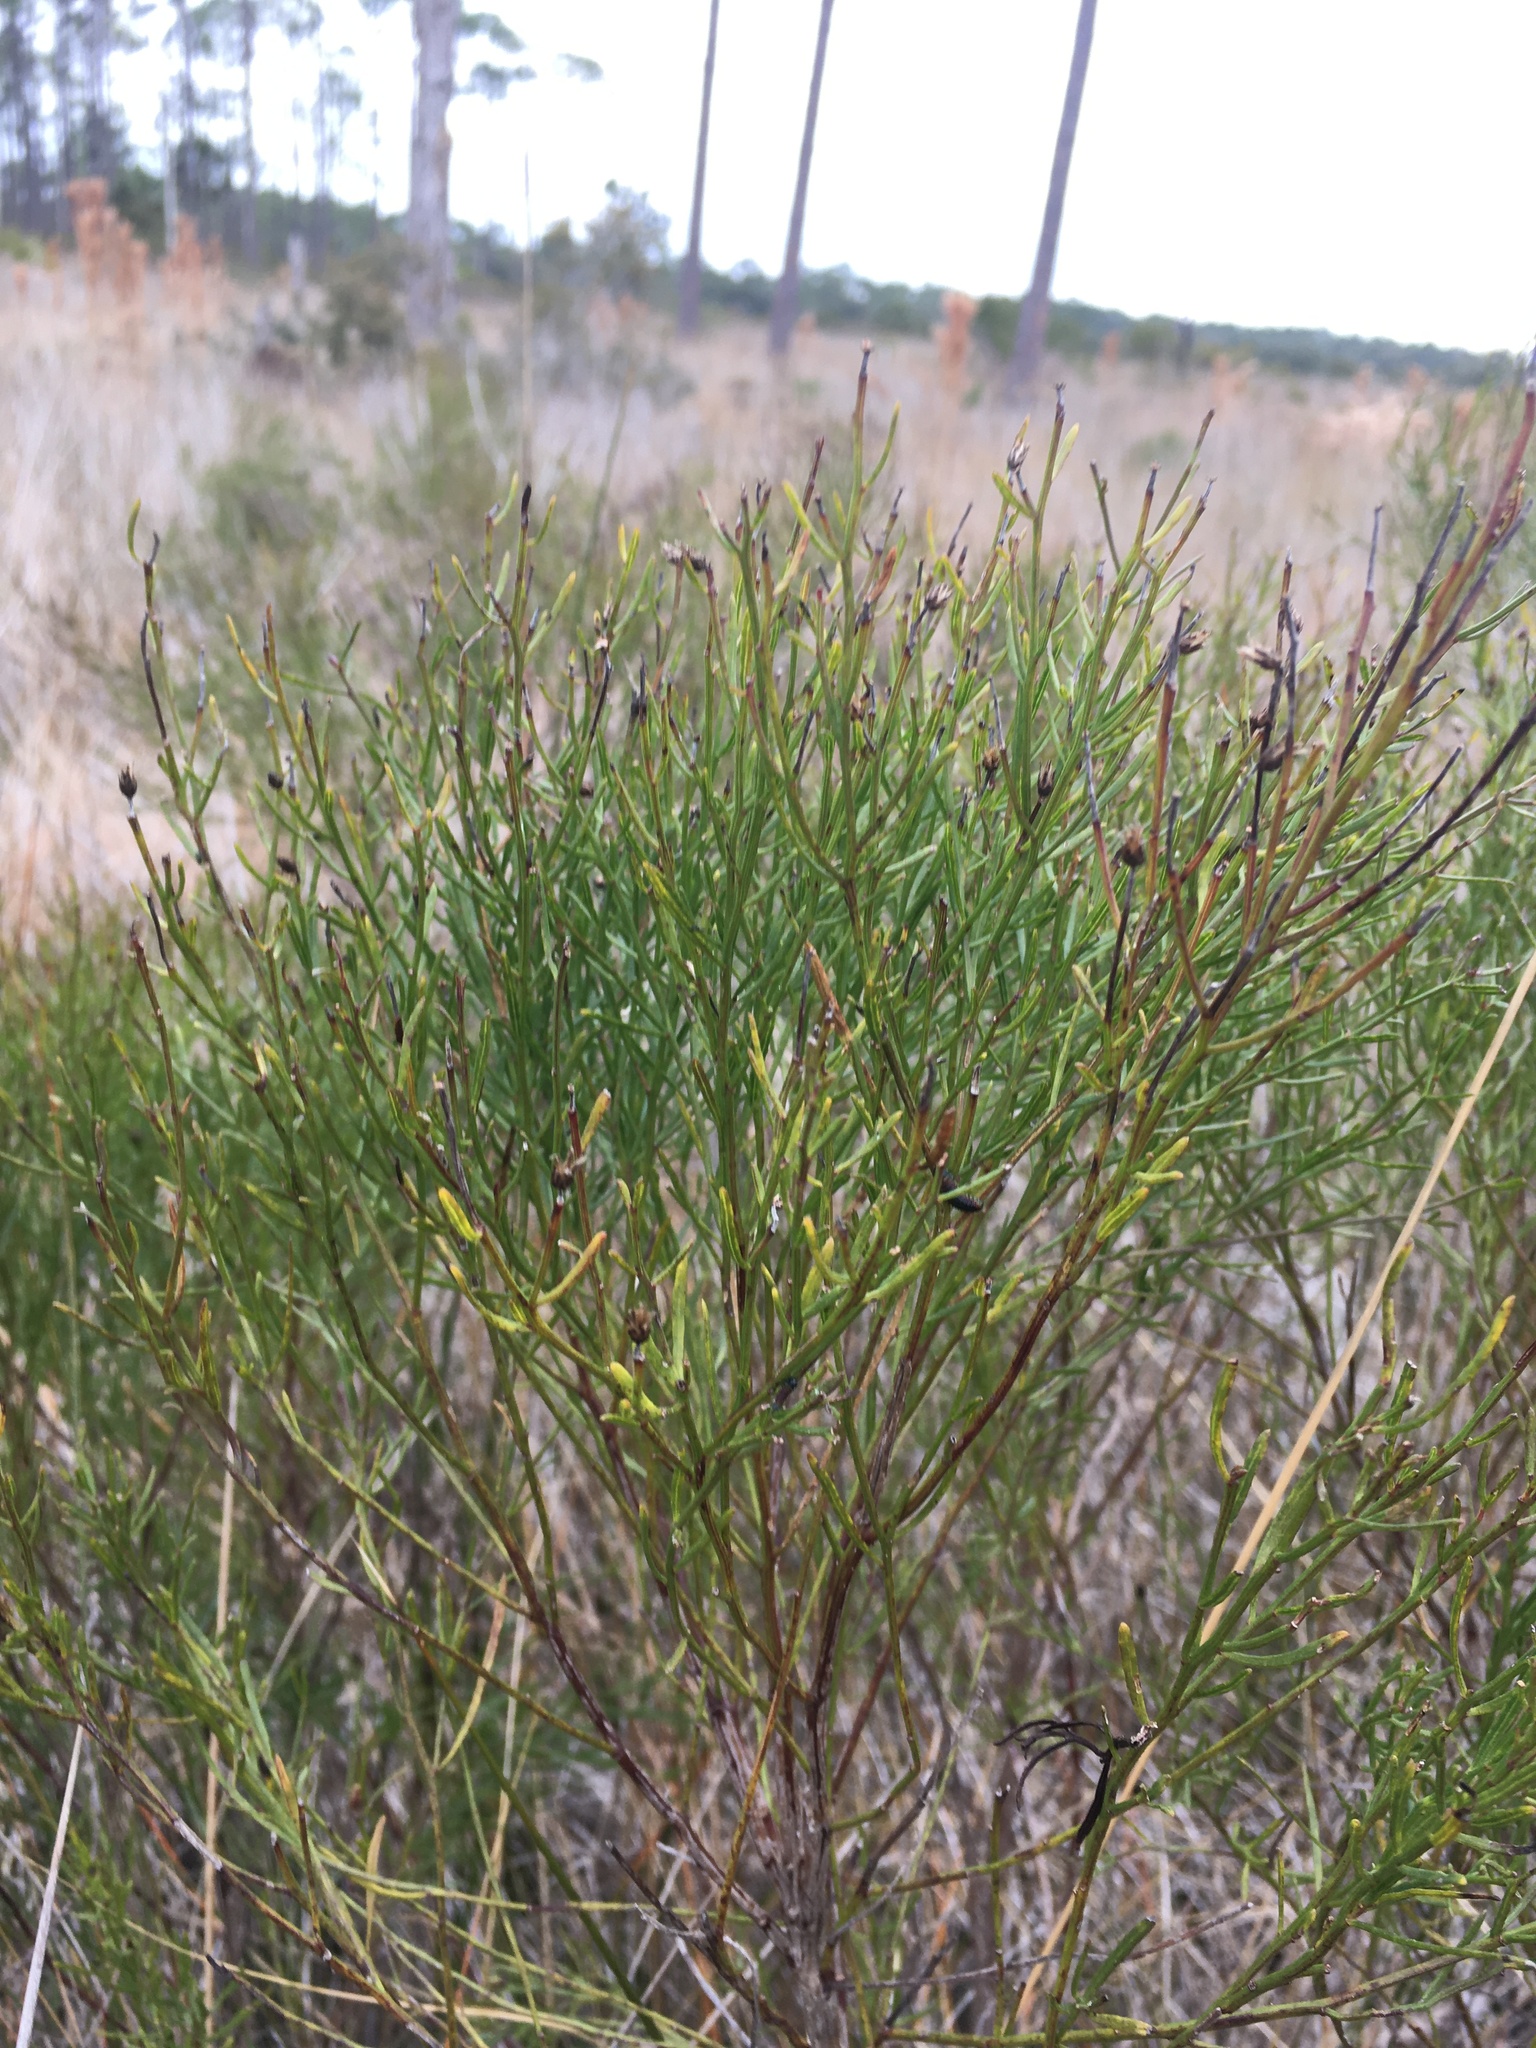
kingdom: Plantae
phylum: Tracheophyta
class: Magnoliopsida
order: Asterales
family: Asteraceae
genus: Baccharis
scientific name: Baccharis angustifolia
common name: Narrow-leaf baccharis
